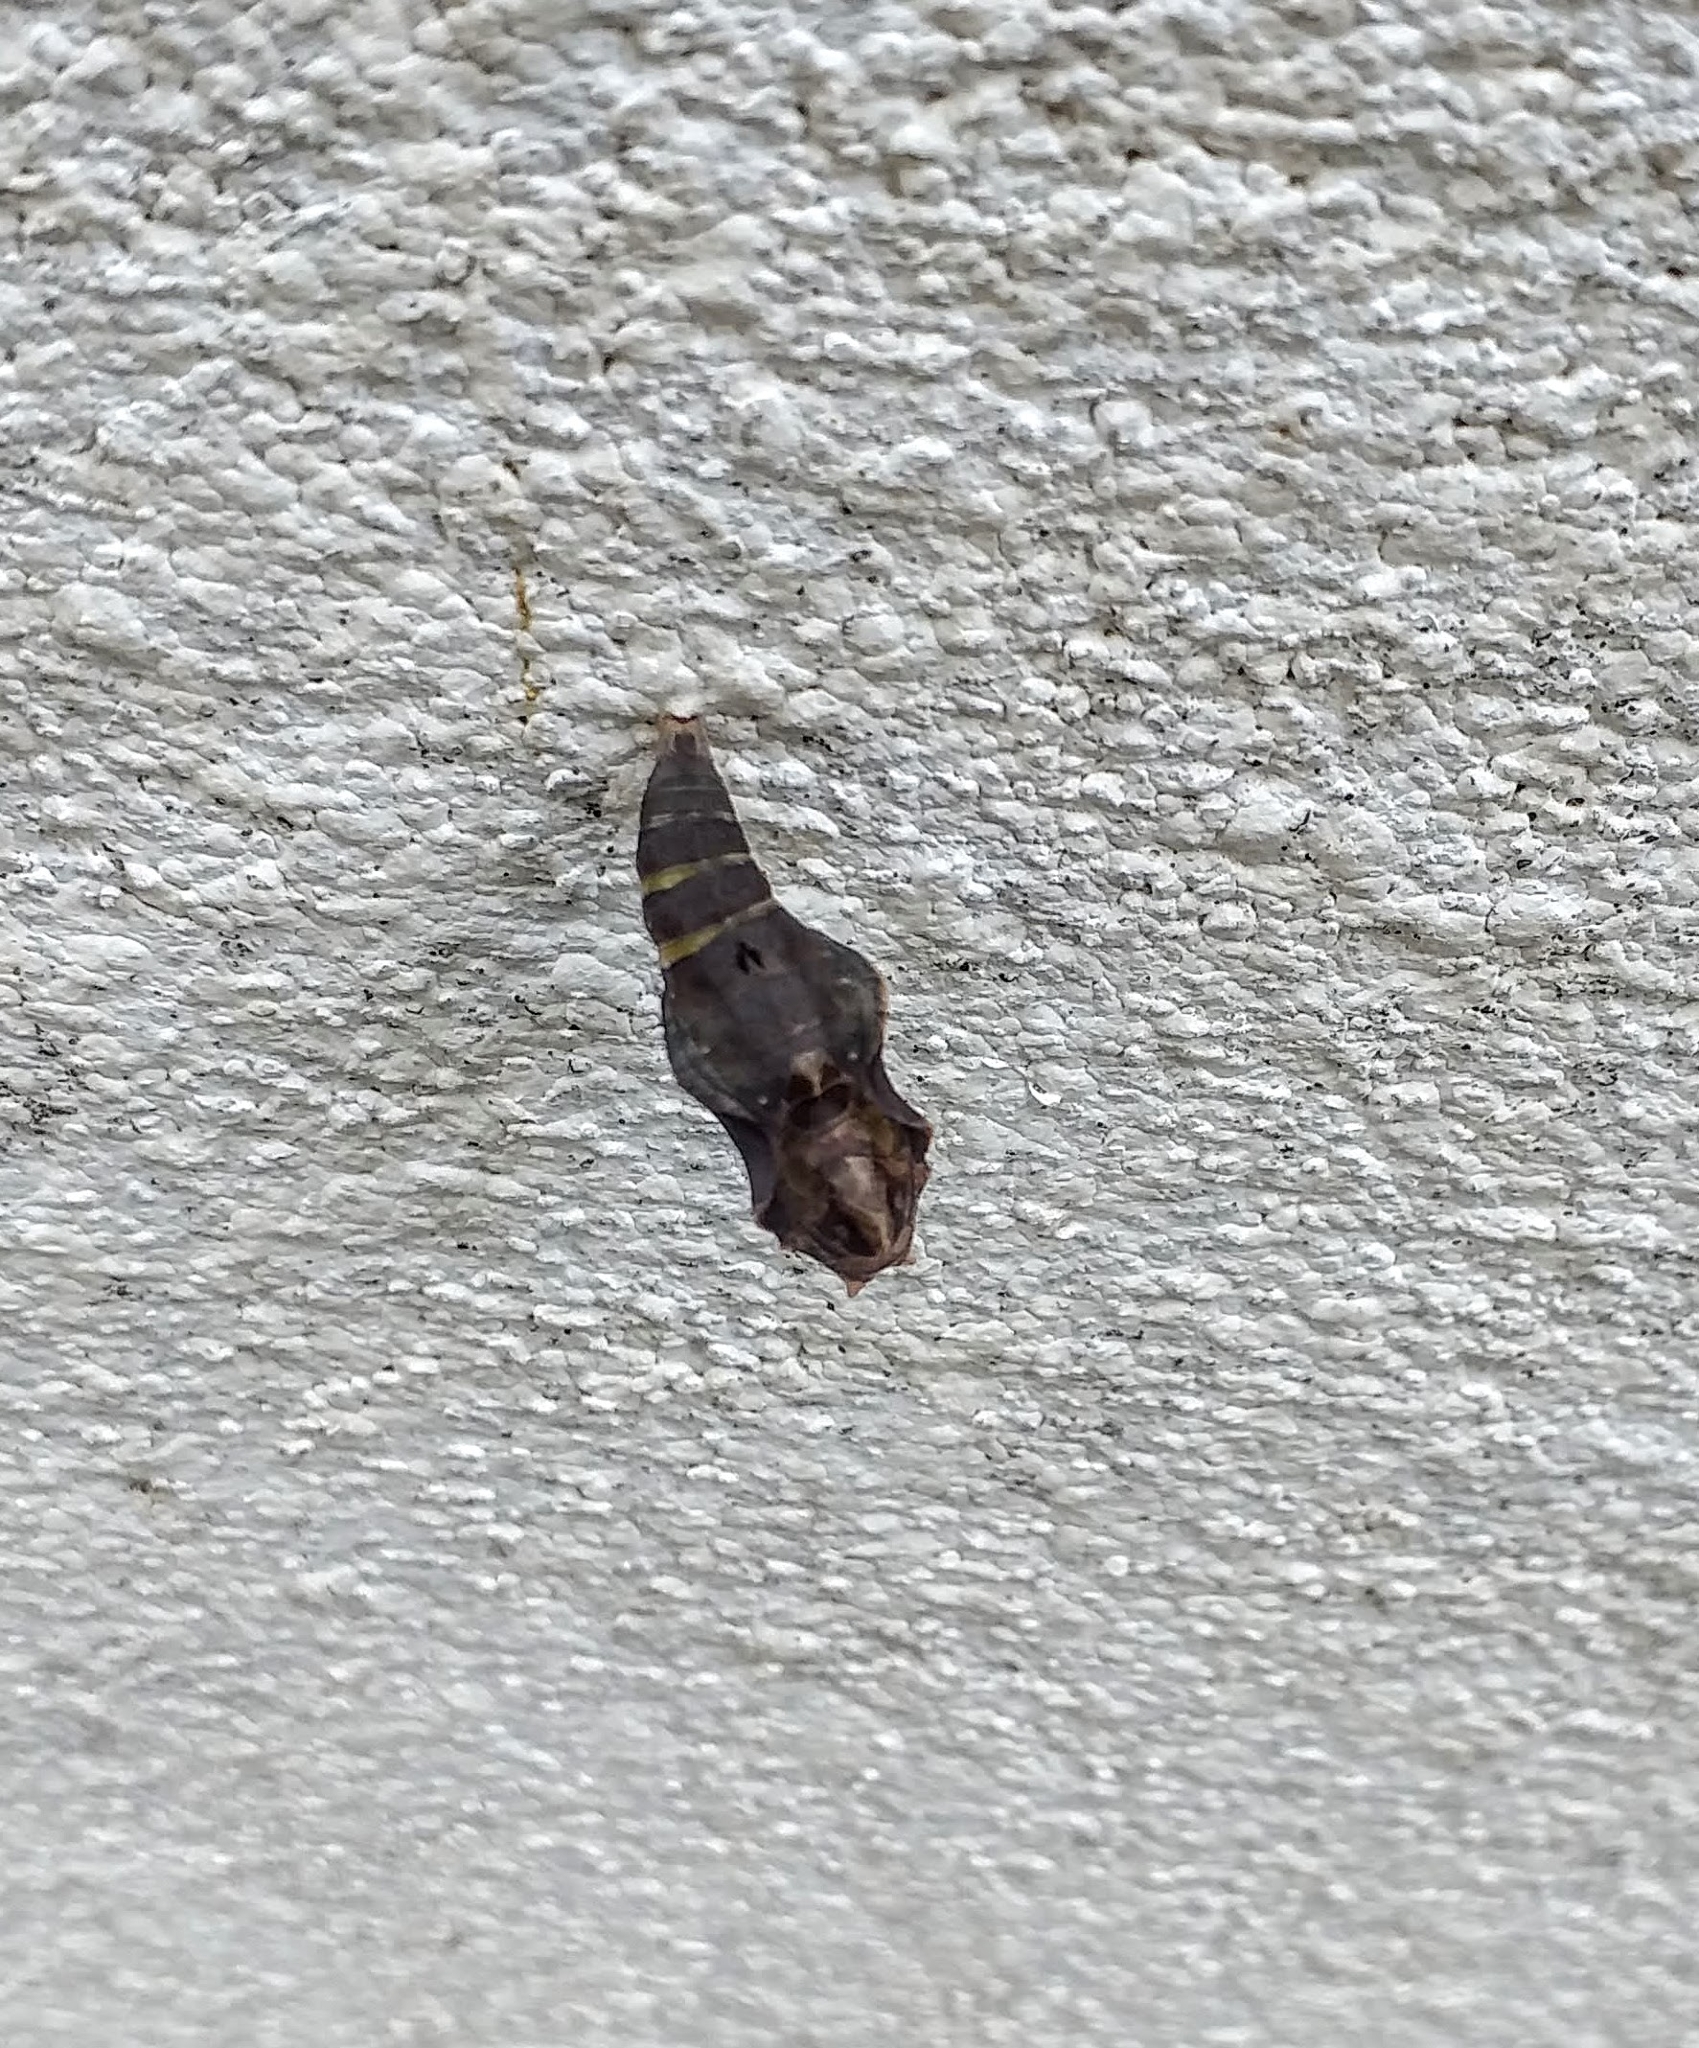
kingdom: Animalia
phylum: Arthropoda
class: Insecta
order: Lepidoptera
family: Nymphalidae
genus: Ariadne
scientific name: Ariadne merione
